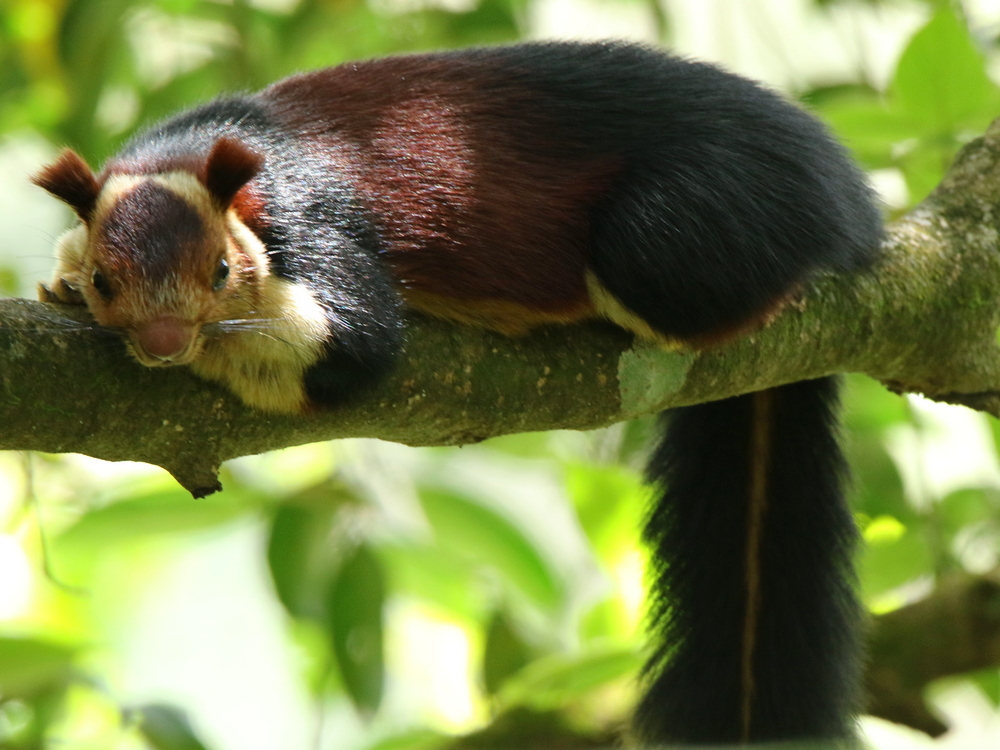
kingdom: Animalia
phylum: Chordata
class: Mammalia
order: Rodentia
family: Sciuridae
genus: Ratufa
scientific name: Ratufa indica
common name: Indian giant squirrel
